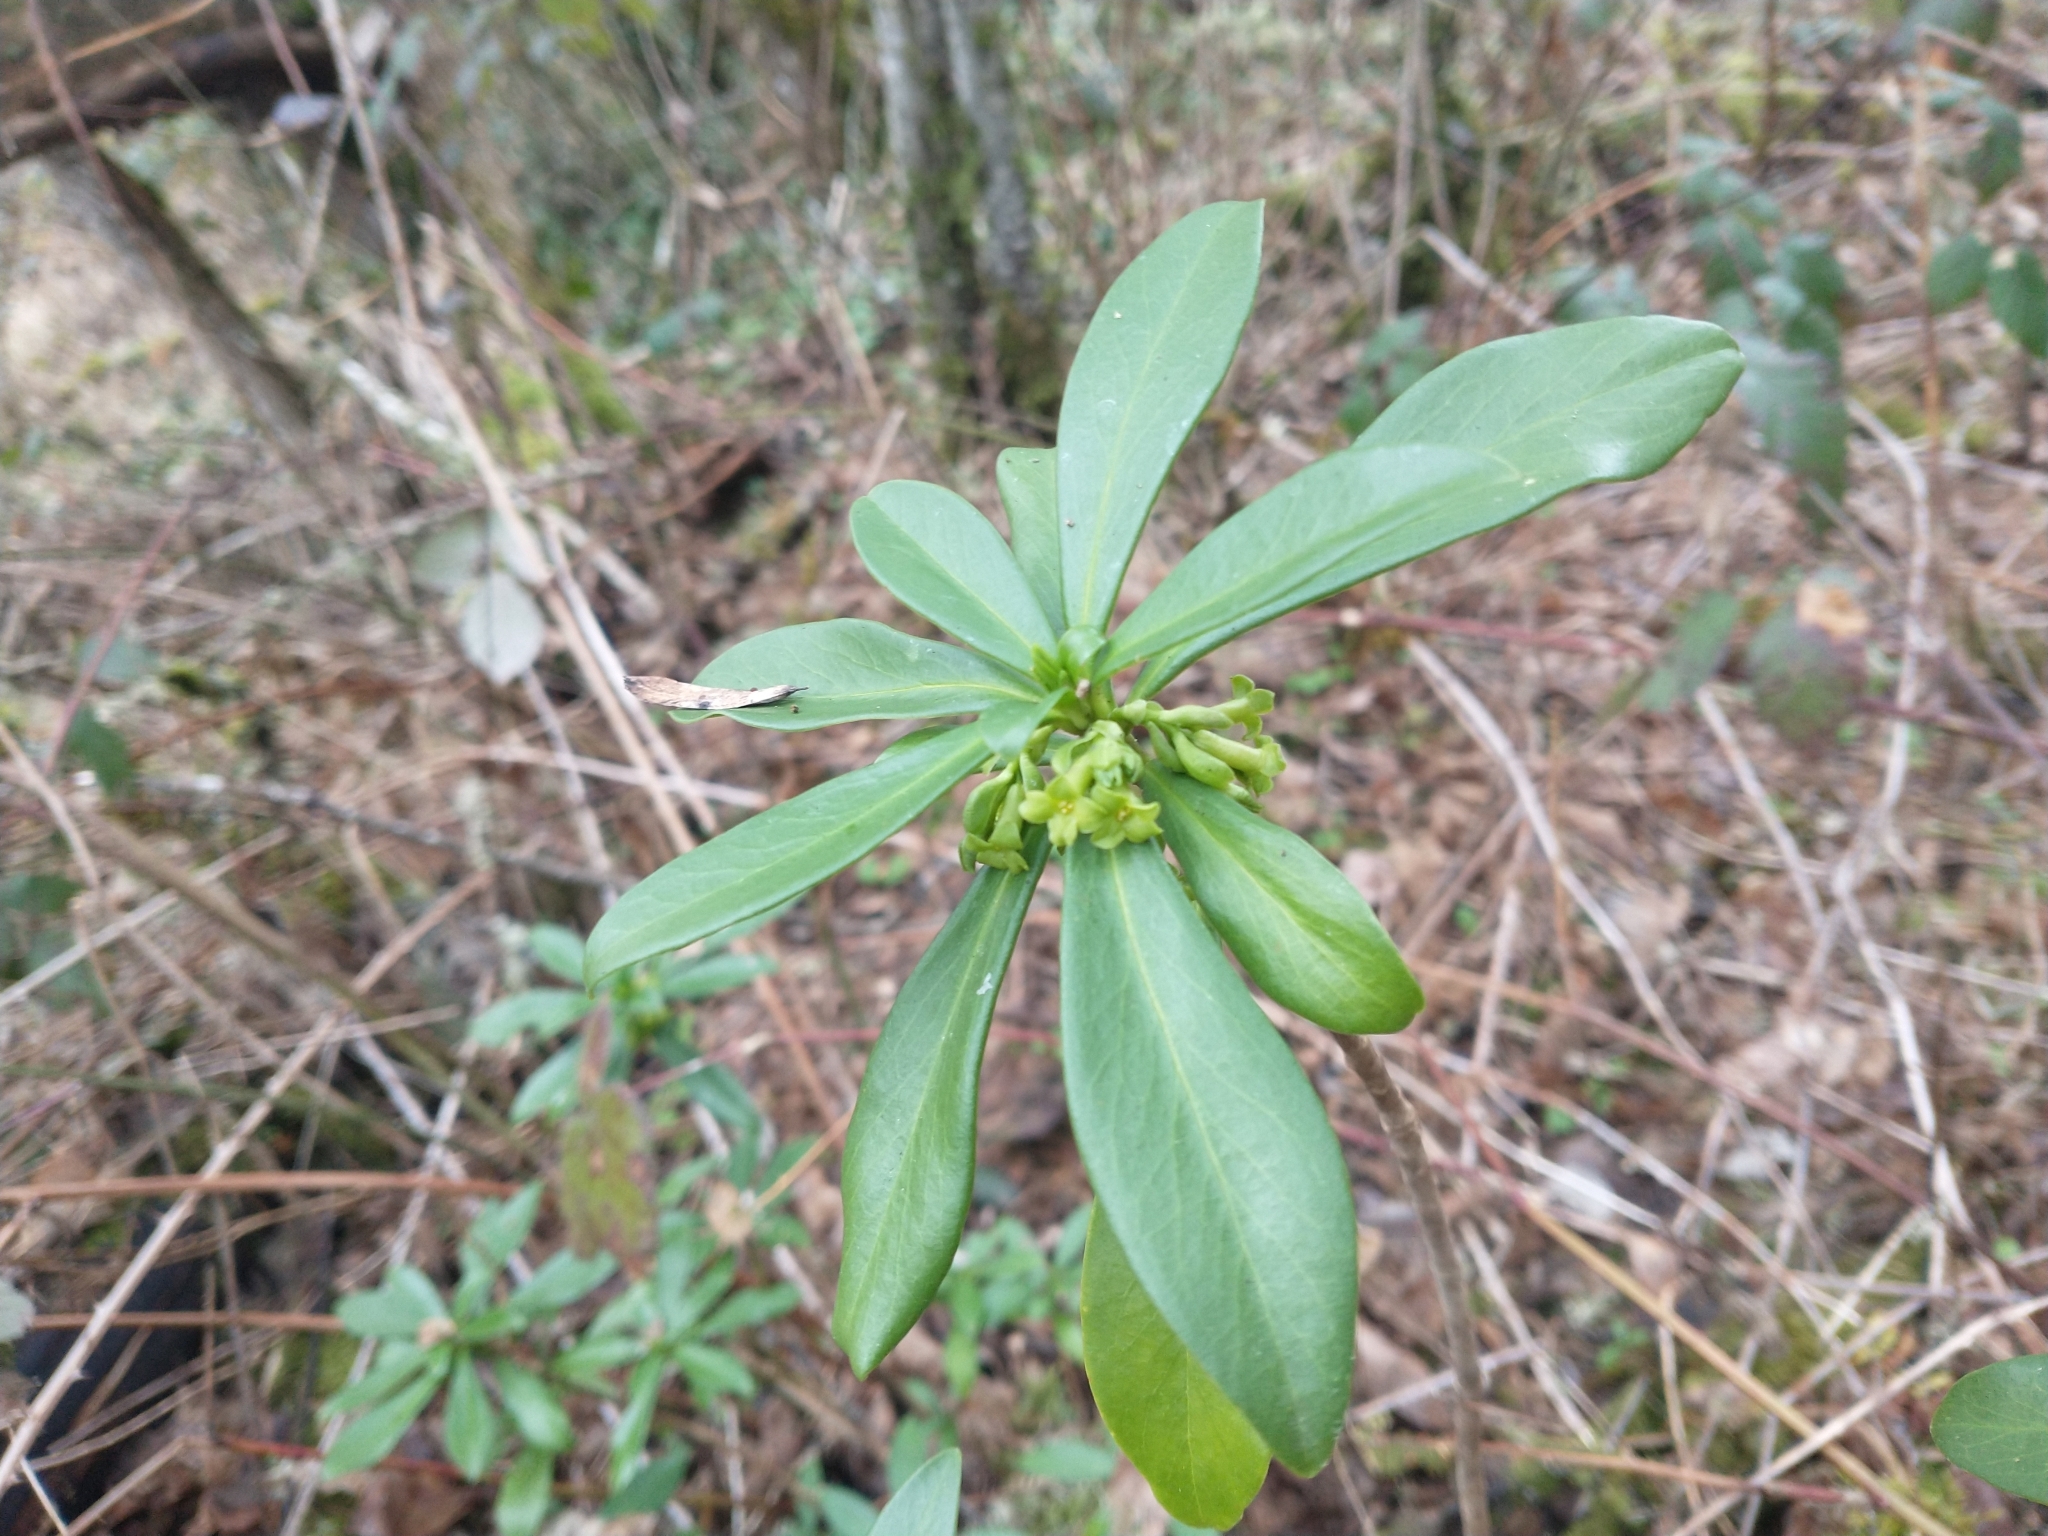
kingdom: Plantae
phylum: Tracheophyta
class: Magnoliopsida
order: Malvales
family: Thymelaeaceae
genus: Daphne
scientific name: Daphne laureola
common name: Spurge-laurel
